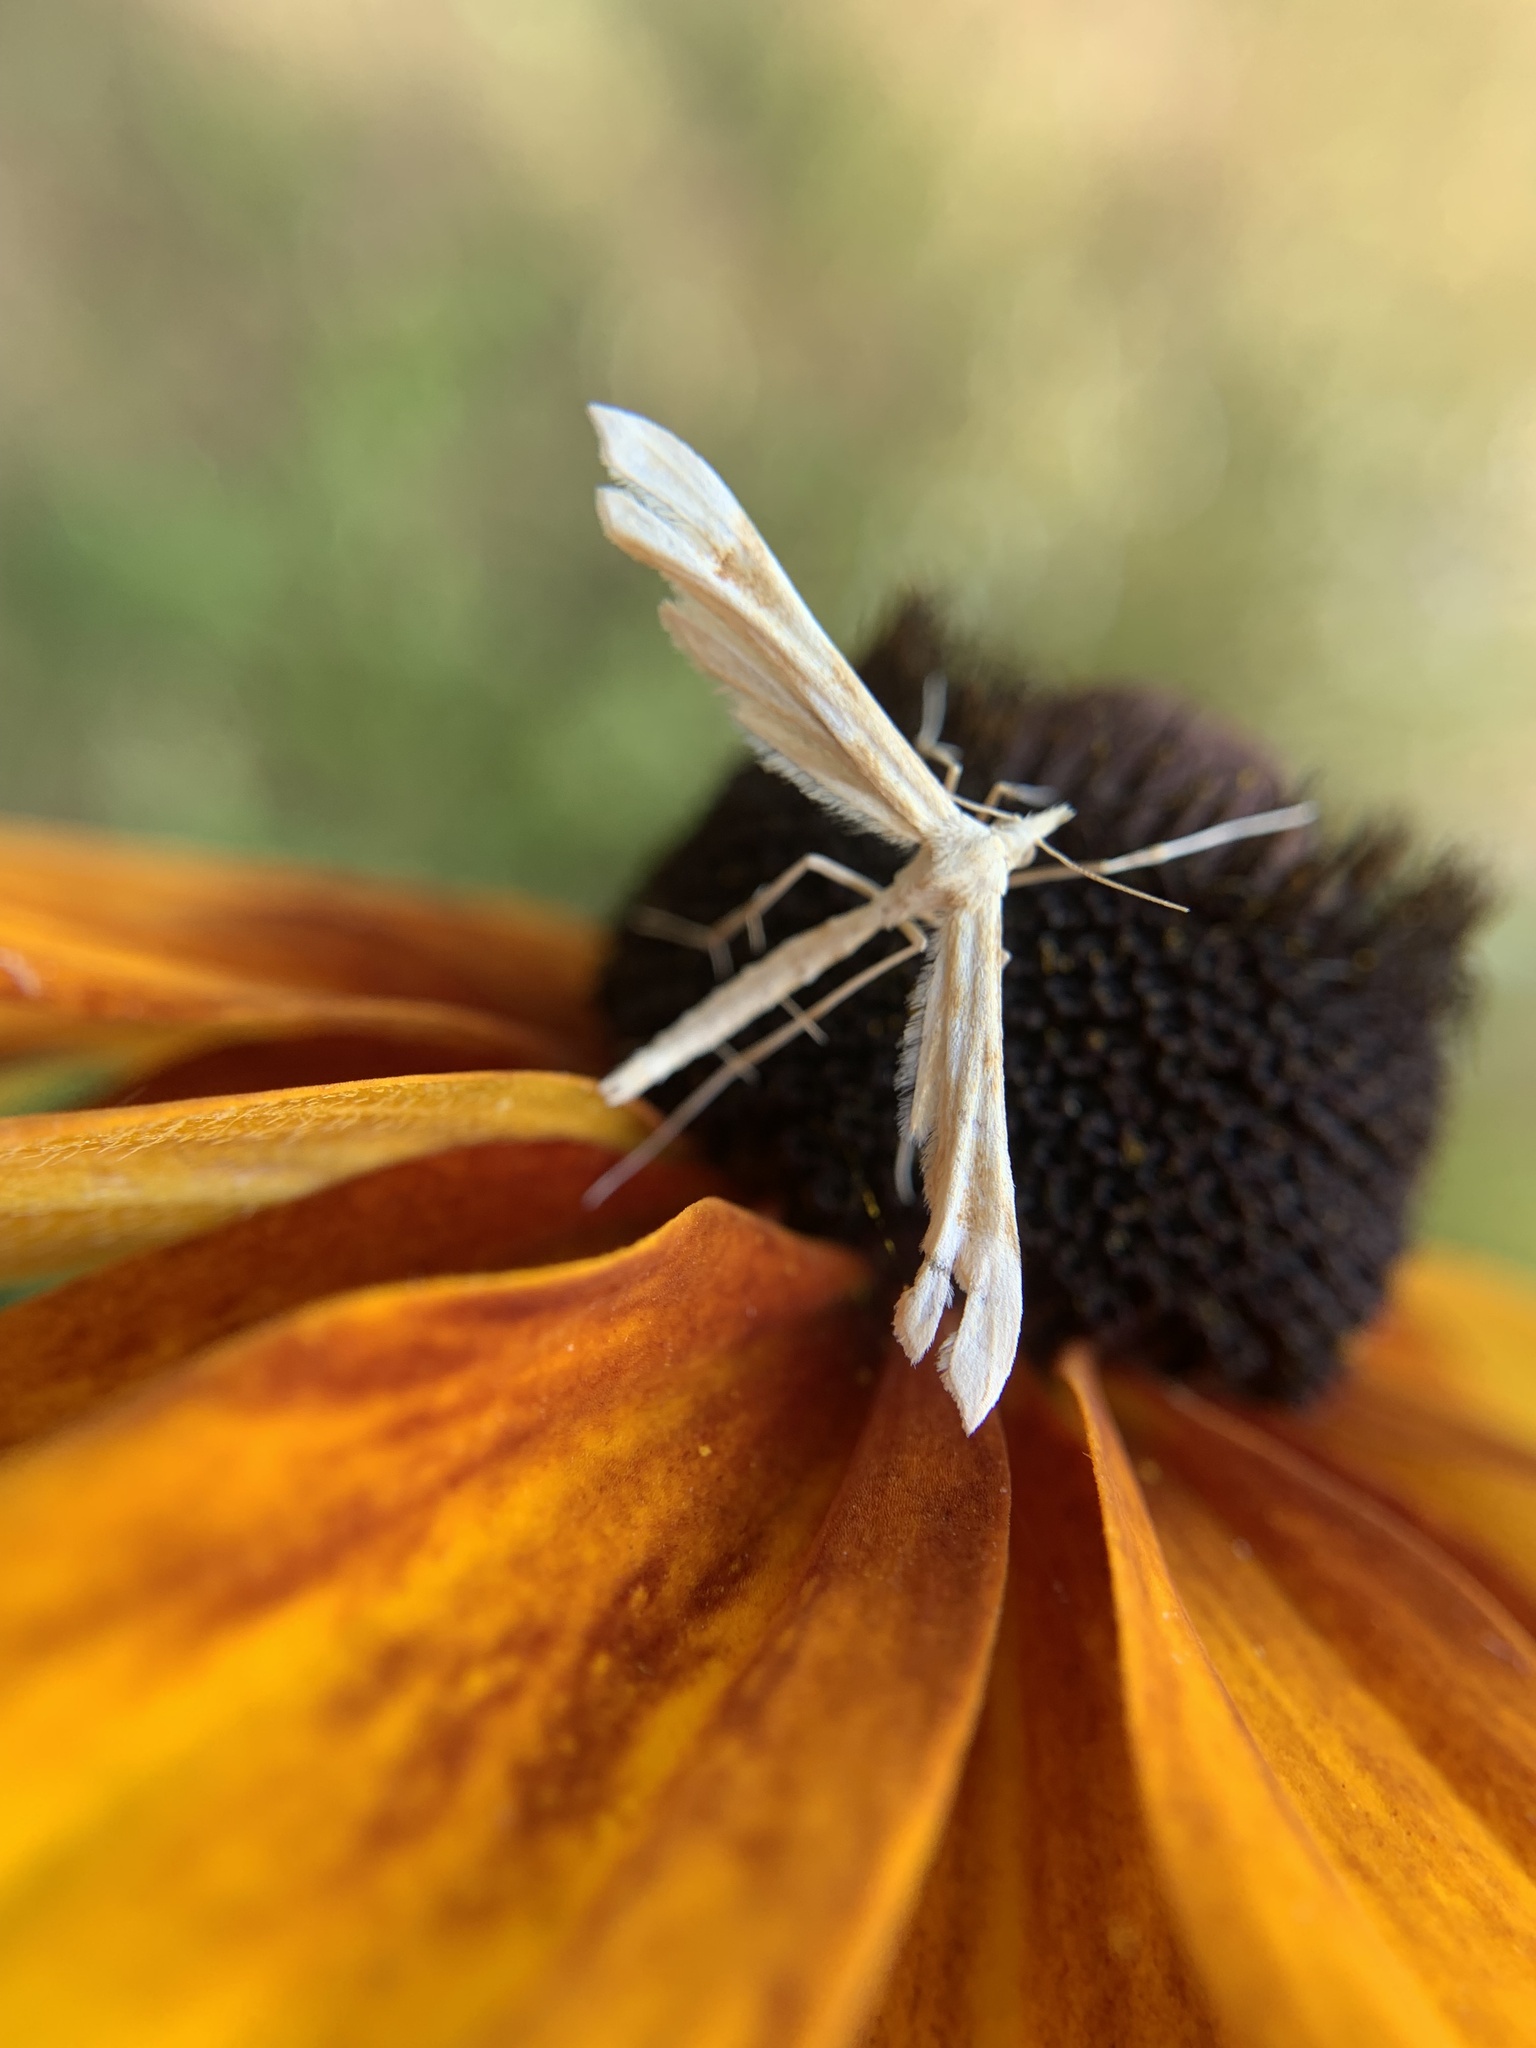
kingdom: Animalia
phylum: Arthropoda
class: Insecta
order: Lepidoptera
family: Pterophoridae
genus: Gillmeria
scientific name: Gillmeria pallidactyla
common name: Yarrow plume
